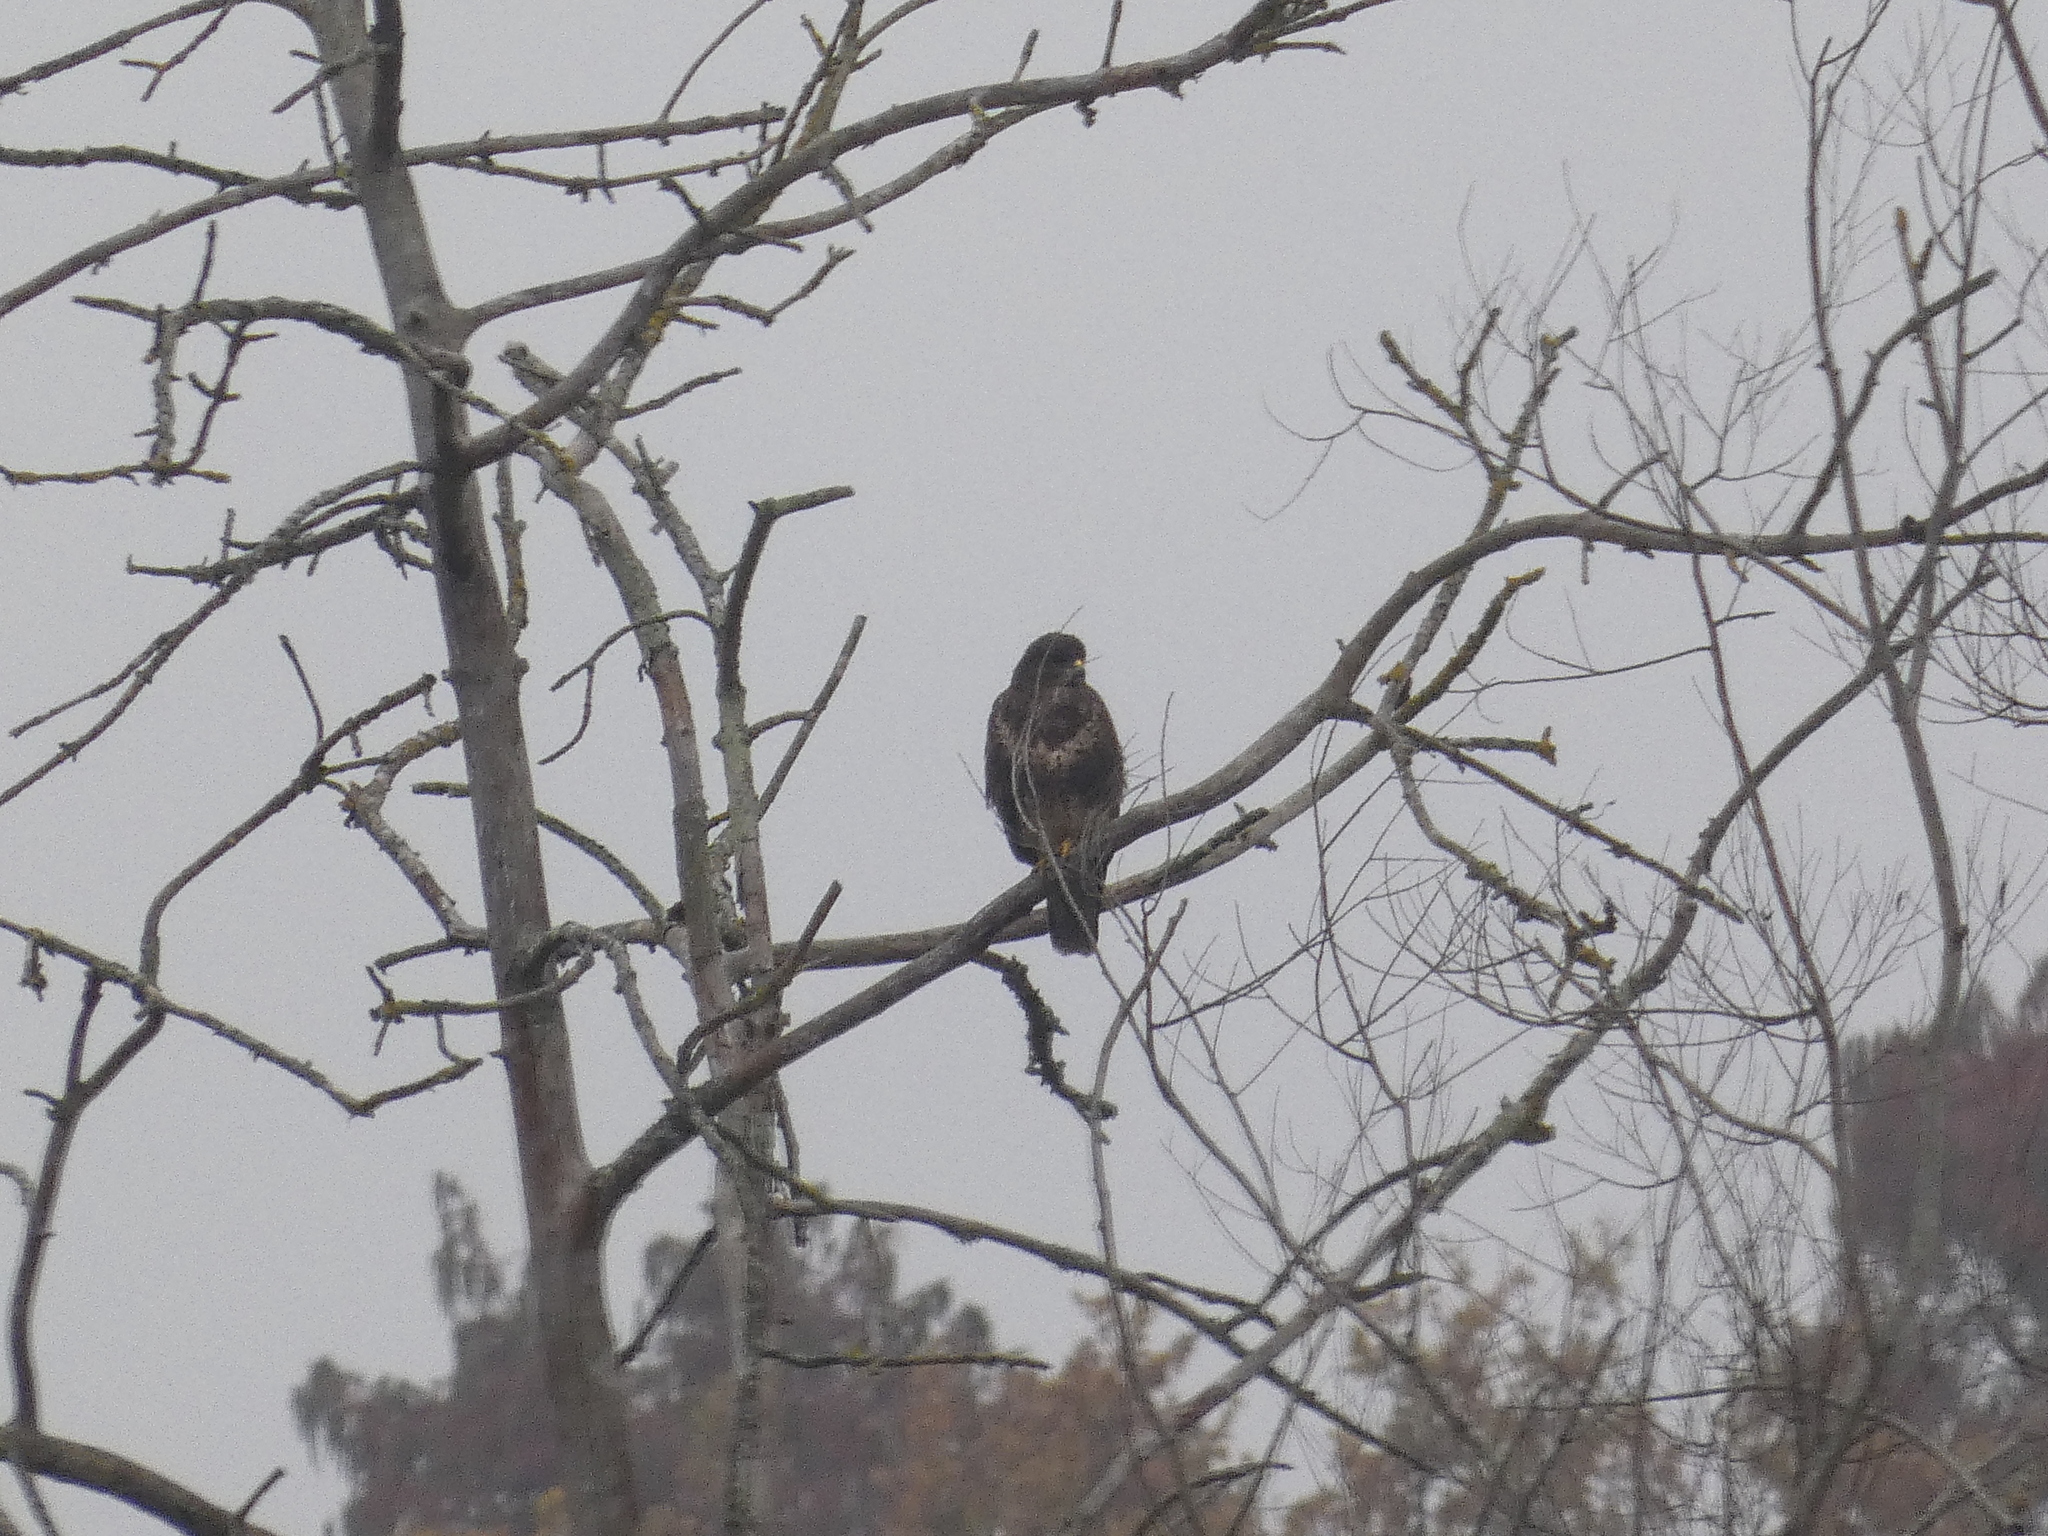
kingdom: Animalia
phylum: Chordata
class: Aves
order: Accipitriformes
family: Accipitridae
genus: Buteo
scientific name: Buteo buteo
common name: Common buzzard
